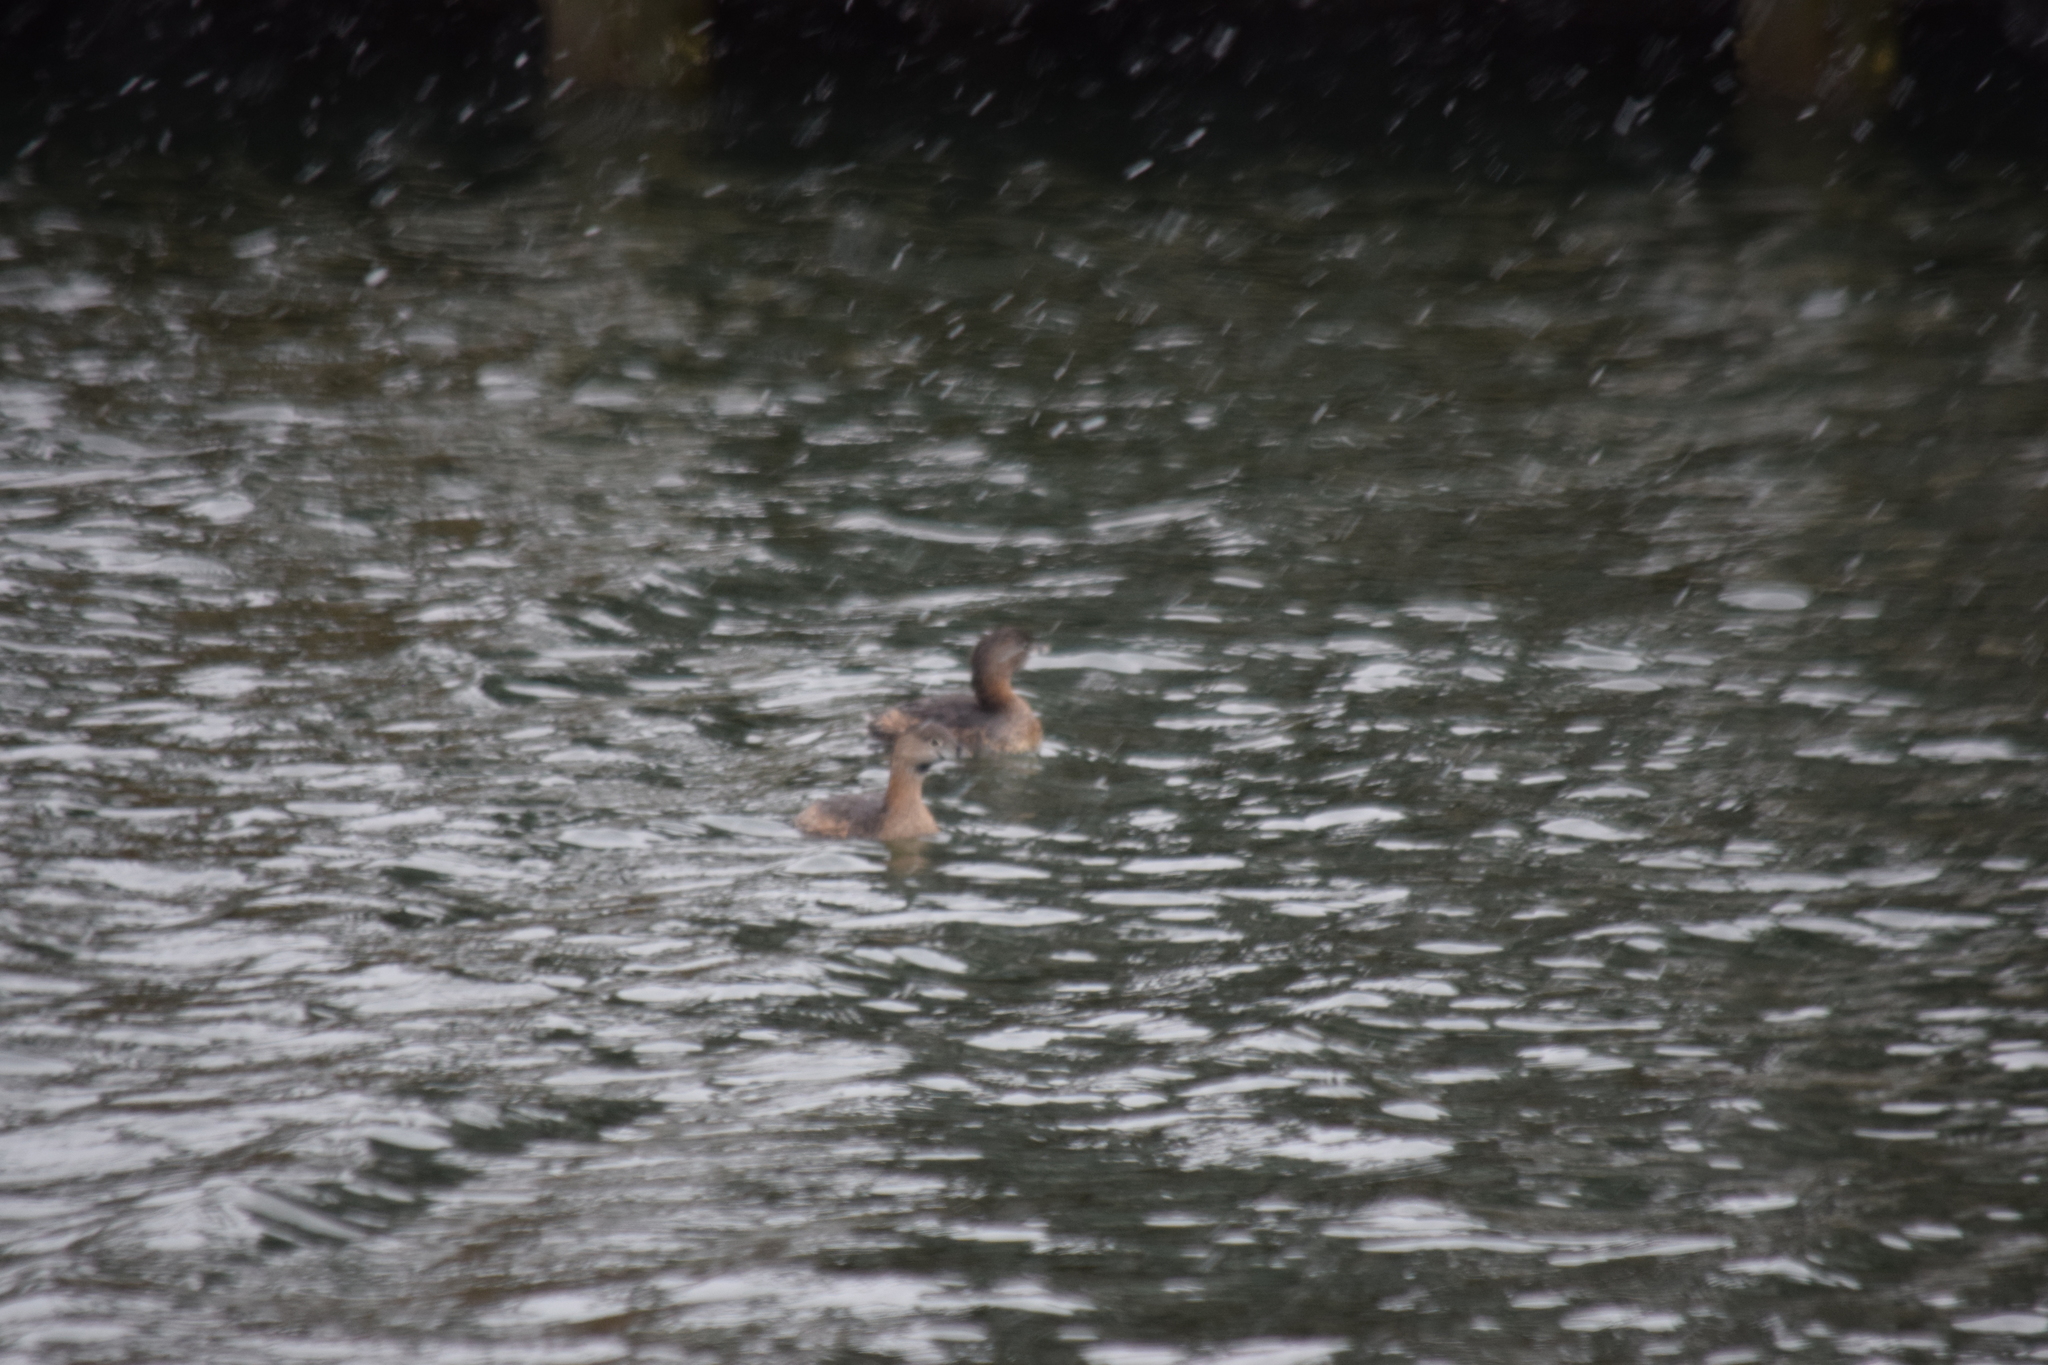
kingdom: Animalia
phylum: Chordata
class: Aves
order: Podicipediformes
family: Podicipedidae
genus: Podilymbus
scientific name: Podilymbus podiceps
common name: Pied-billed grebe
